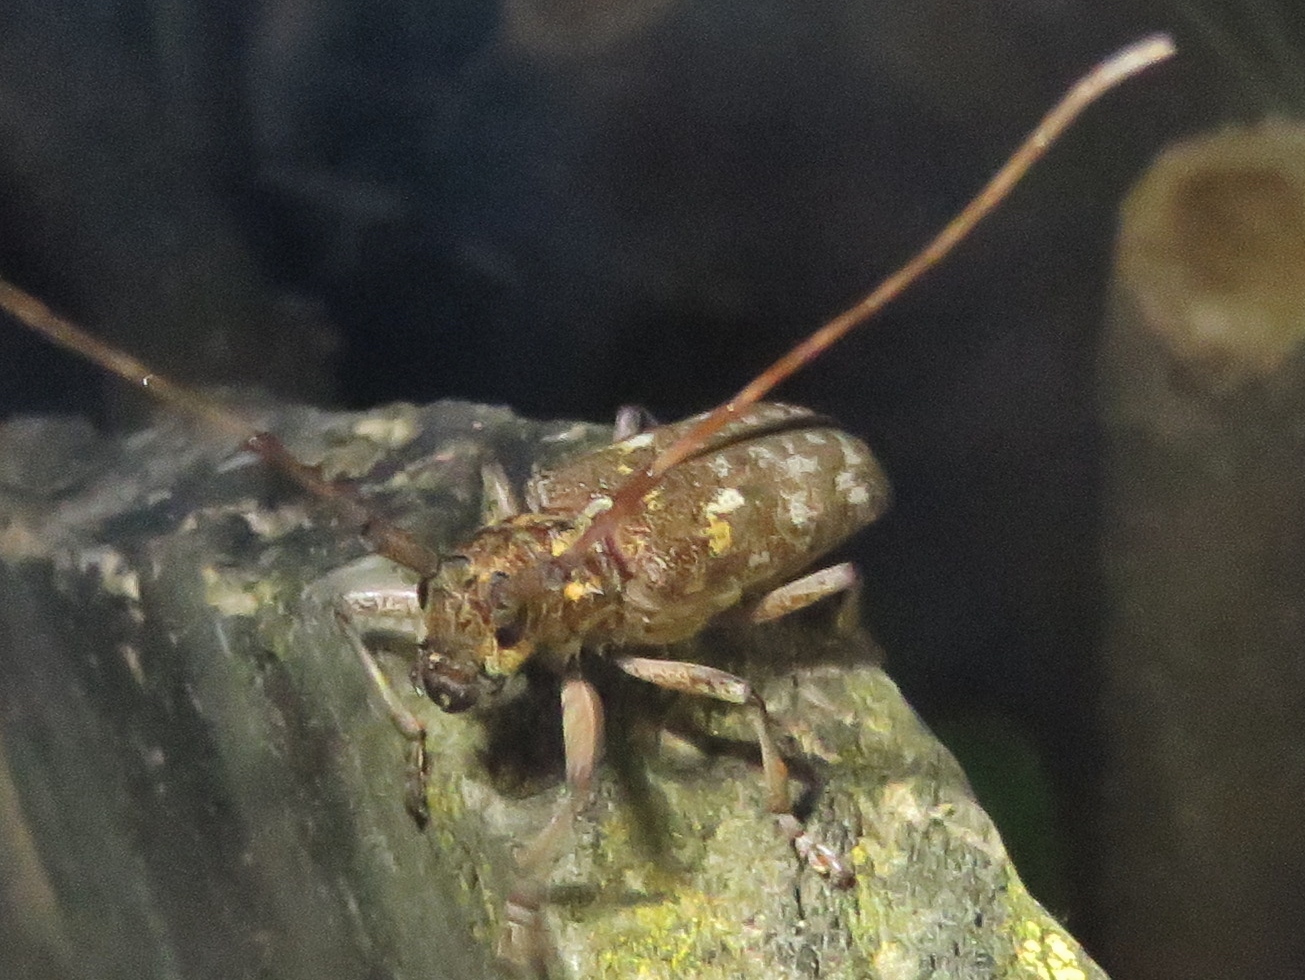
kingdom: Animalia
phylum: Arthropoda
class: Insecta
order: Coleoptera
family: Cerambycidae
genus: Monochamus
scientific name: Monochamus carolinensis
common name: Carolina pine sawyer
